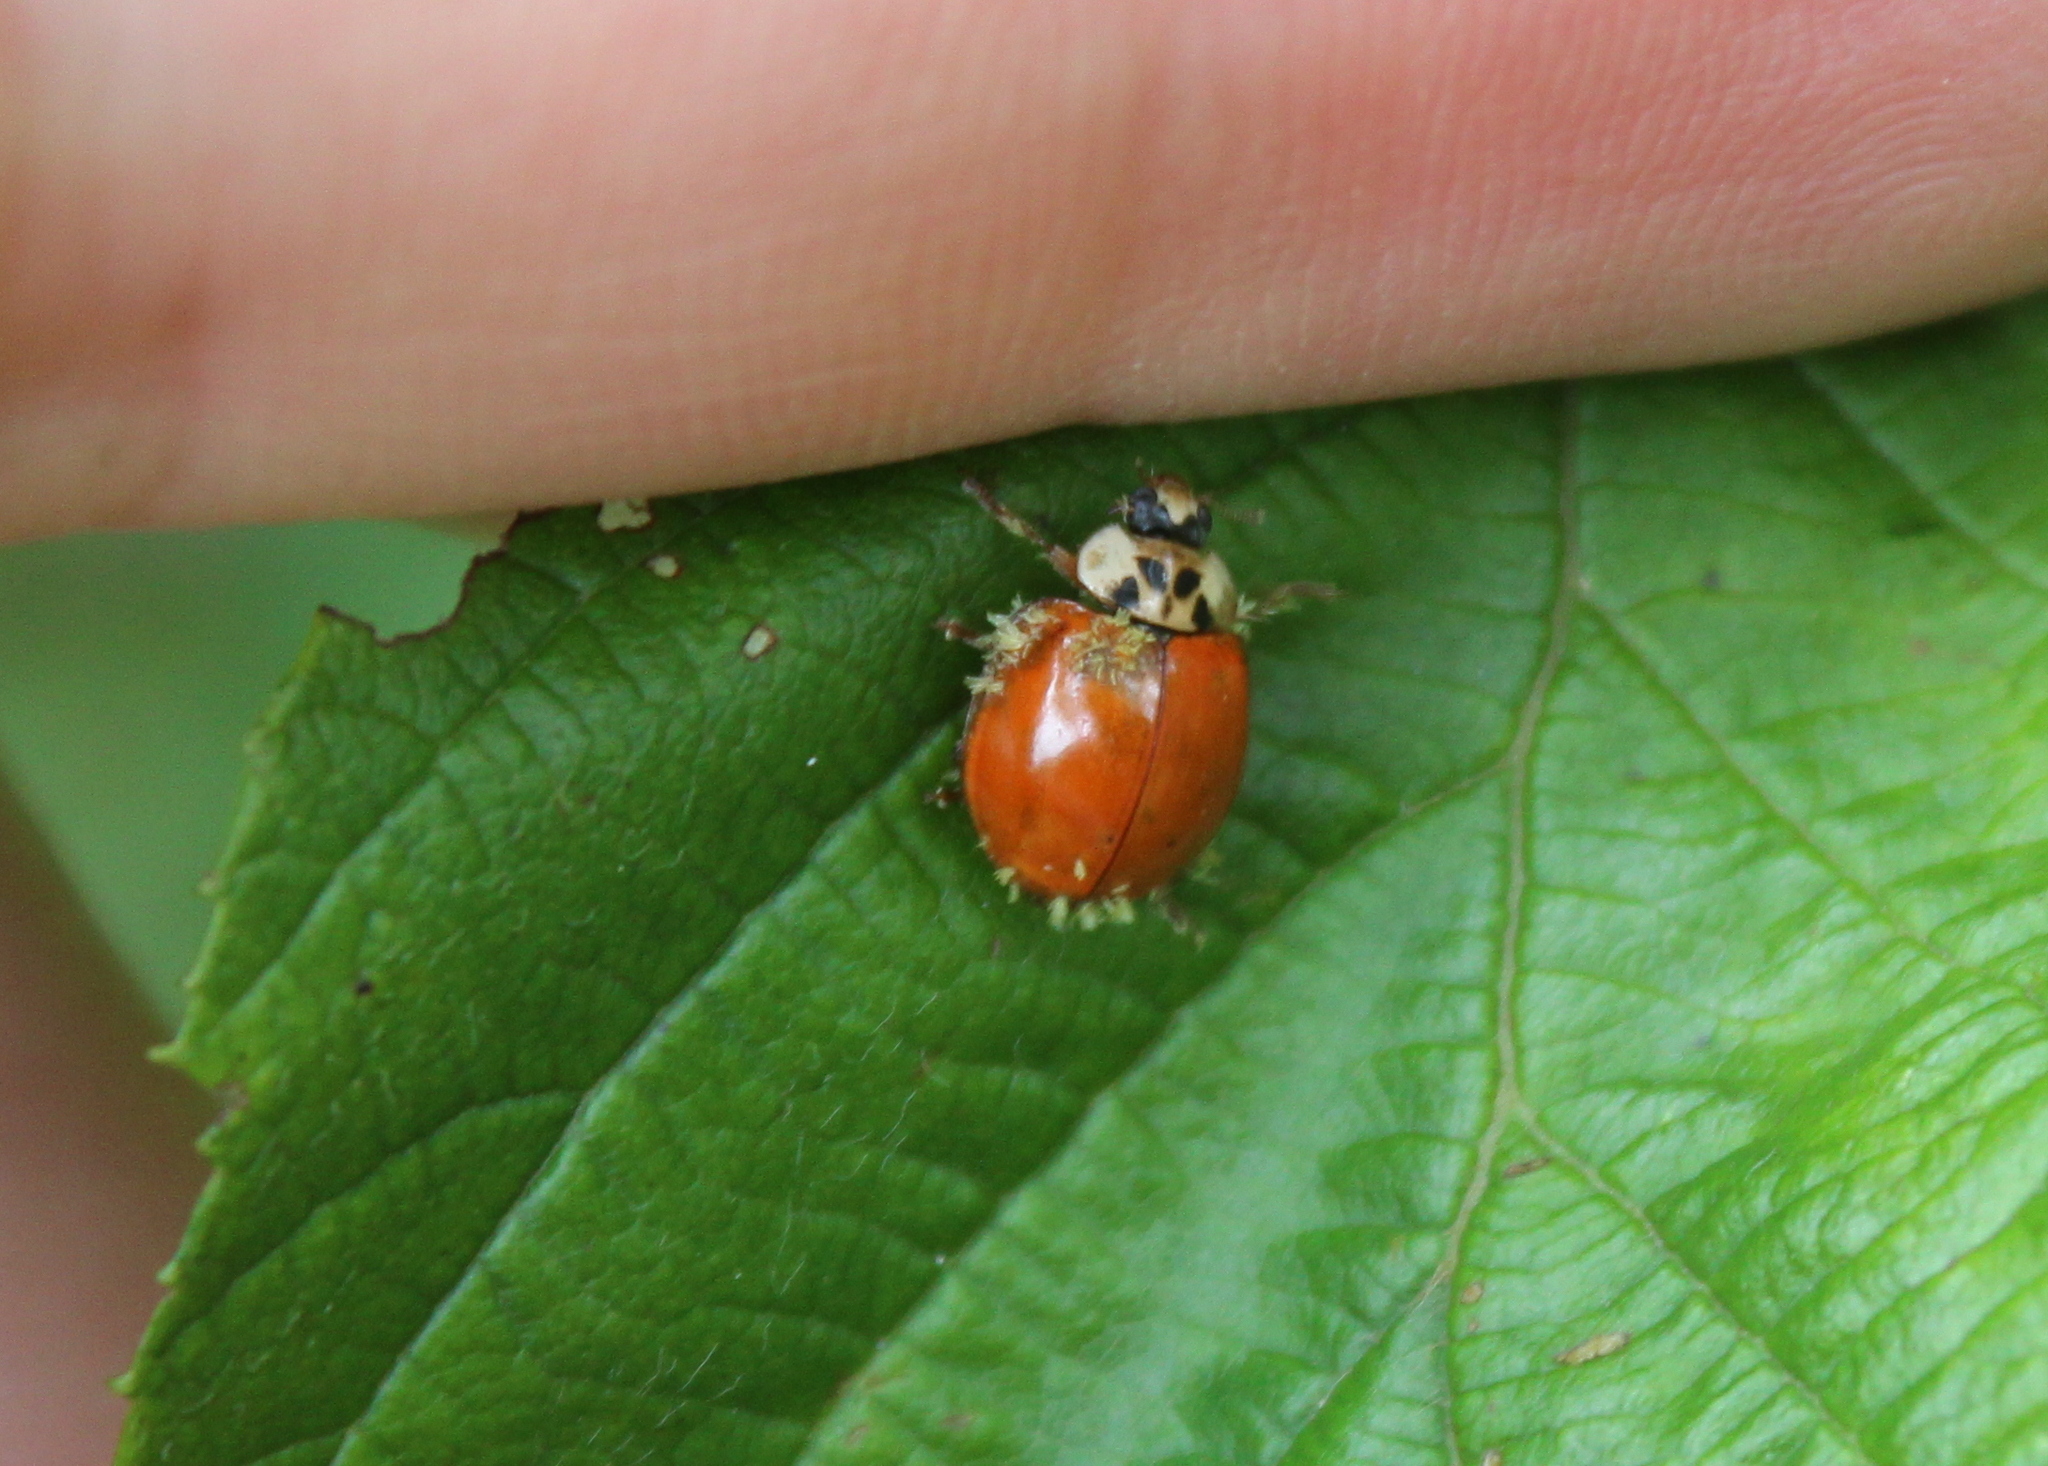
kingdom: Fungi
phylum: Ascomycota
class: Laboulbeniomycetes
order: Laboulbeniales
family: Laboulbeniaceae
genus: Hesperomyces
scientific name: Hesperomyces harmoniae
